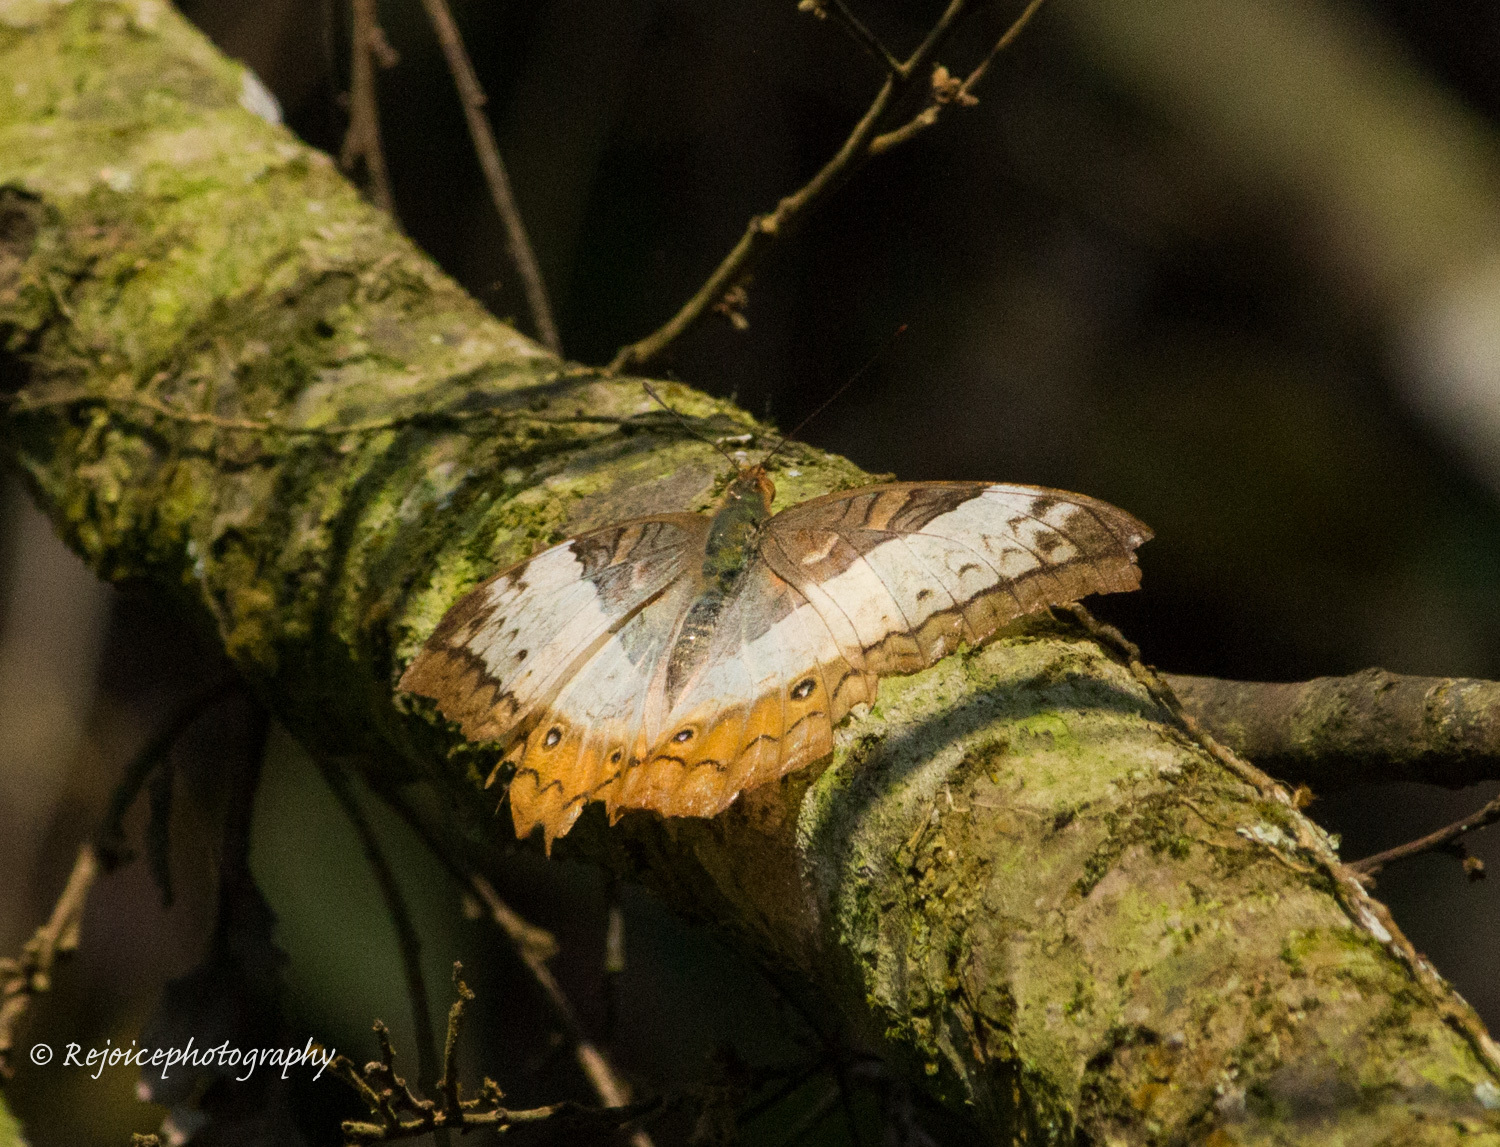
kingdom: Animalia
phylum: Arthropoda
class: Insecta
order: Lepidoptera
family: Nymphalidae
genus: Vindula
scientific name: Vindula erota
